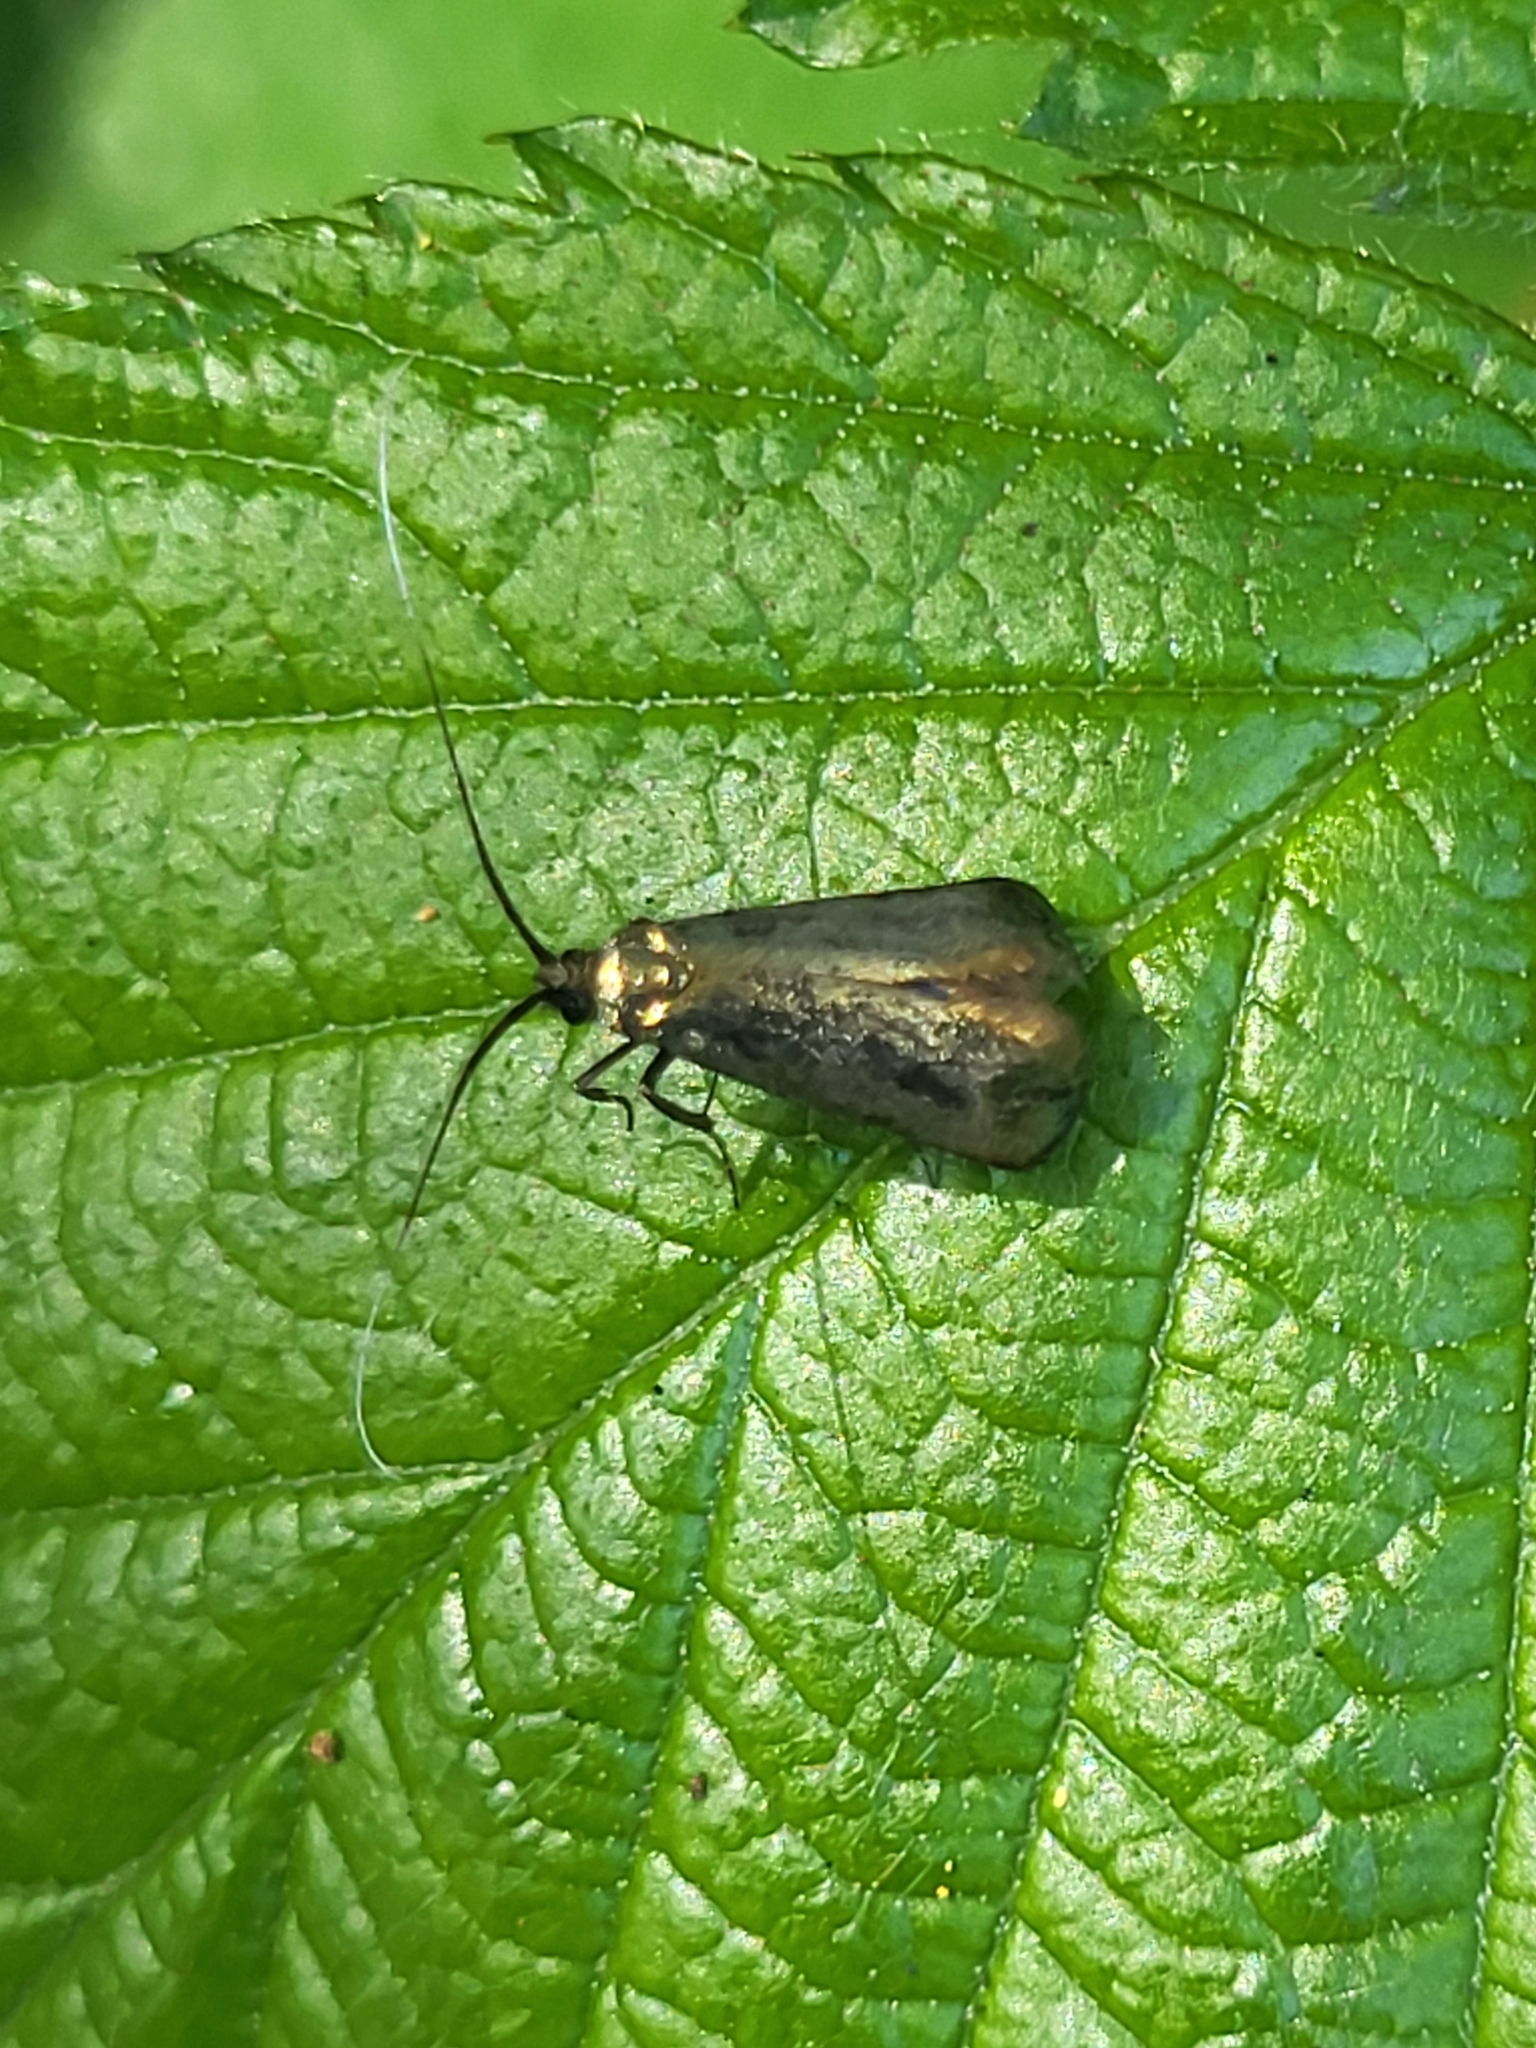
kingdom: Animalia
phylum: Arthropoda
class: Insecta
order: Lepidoptera
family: Adelidae
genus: Adela
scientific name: Adela viridella
